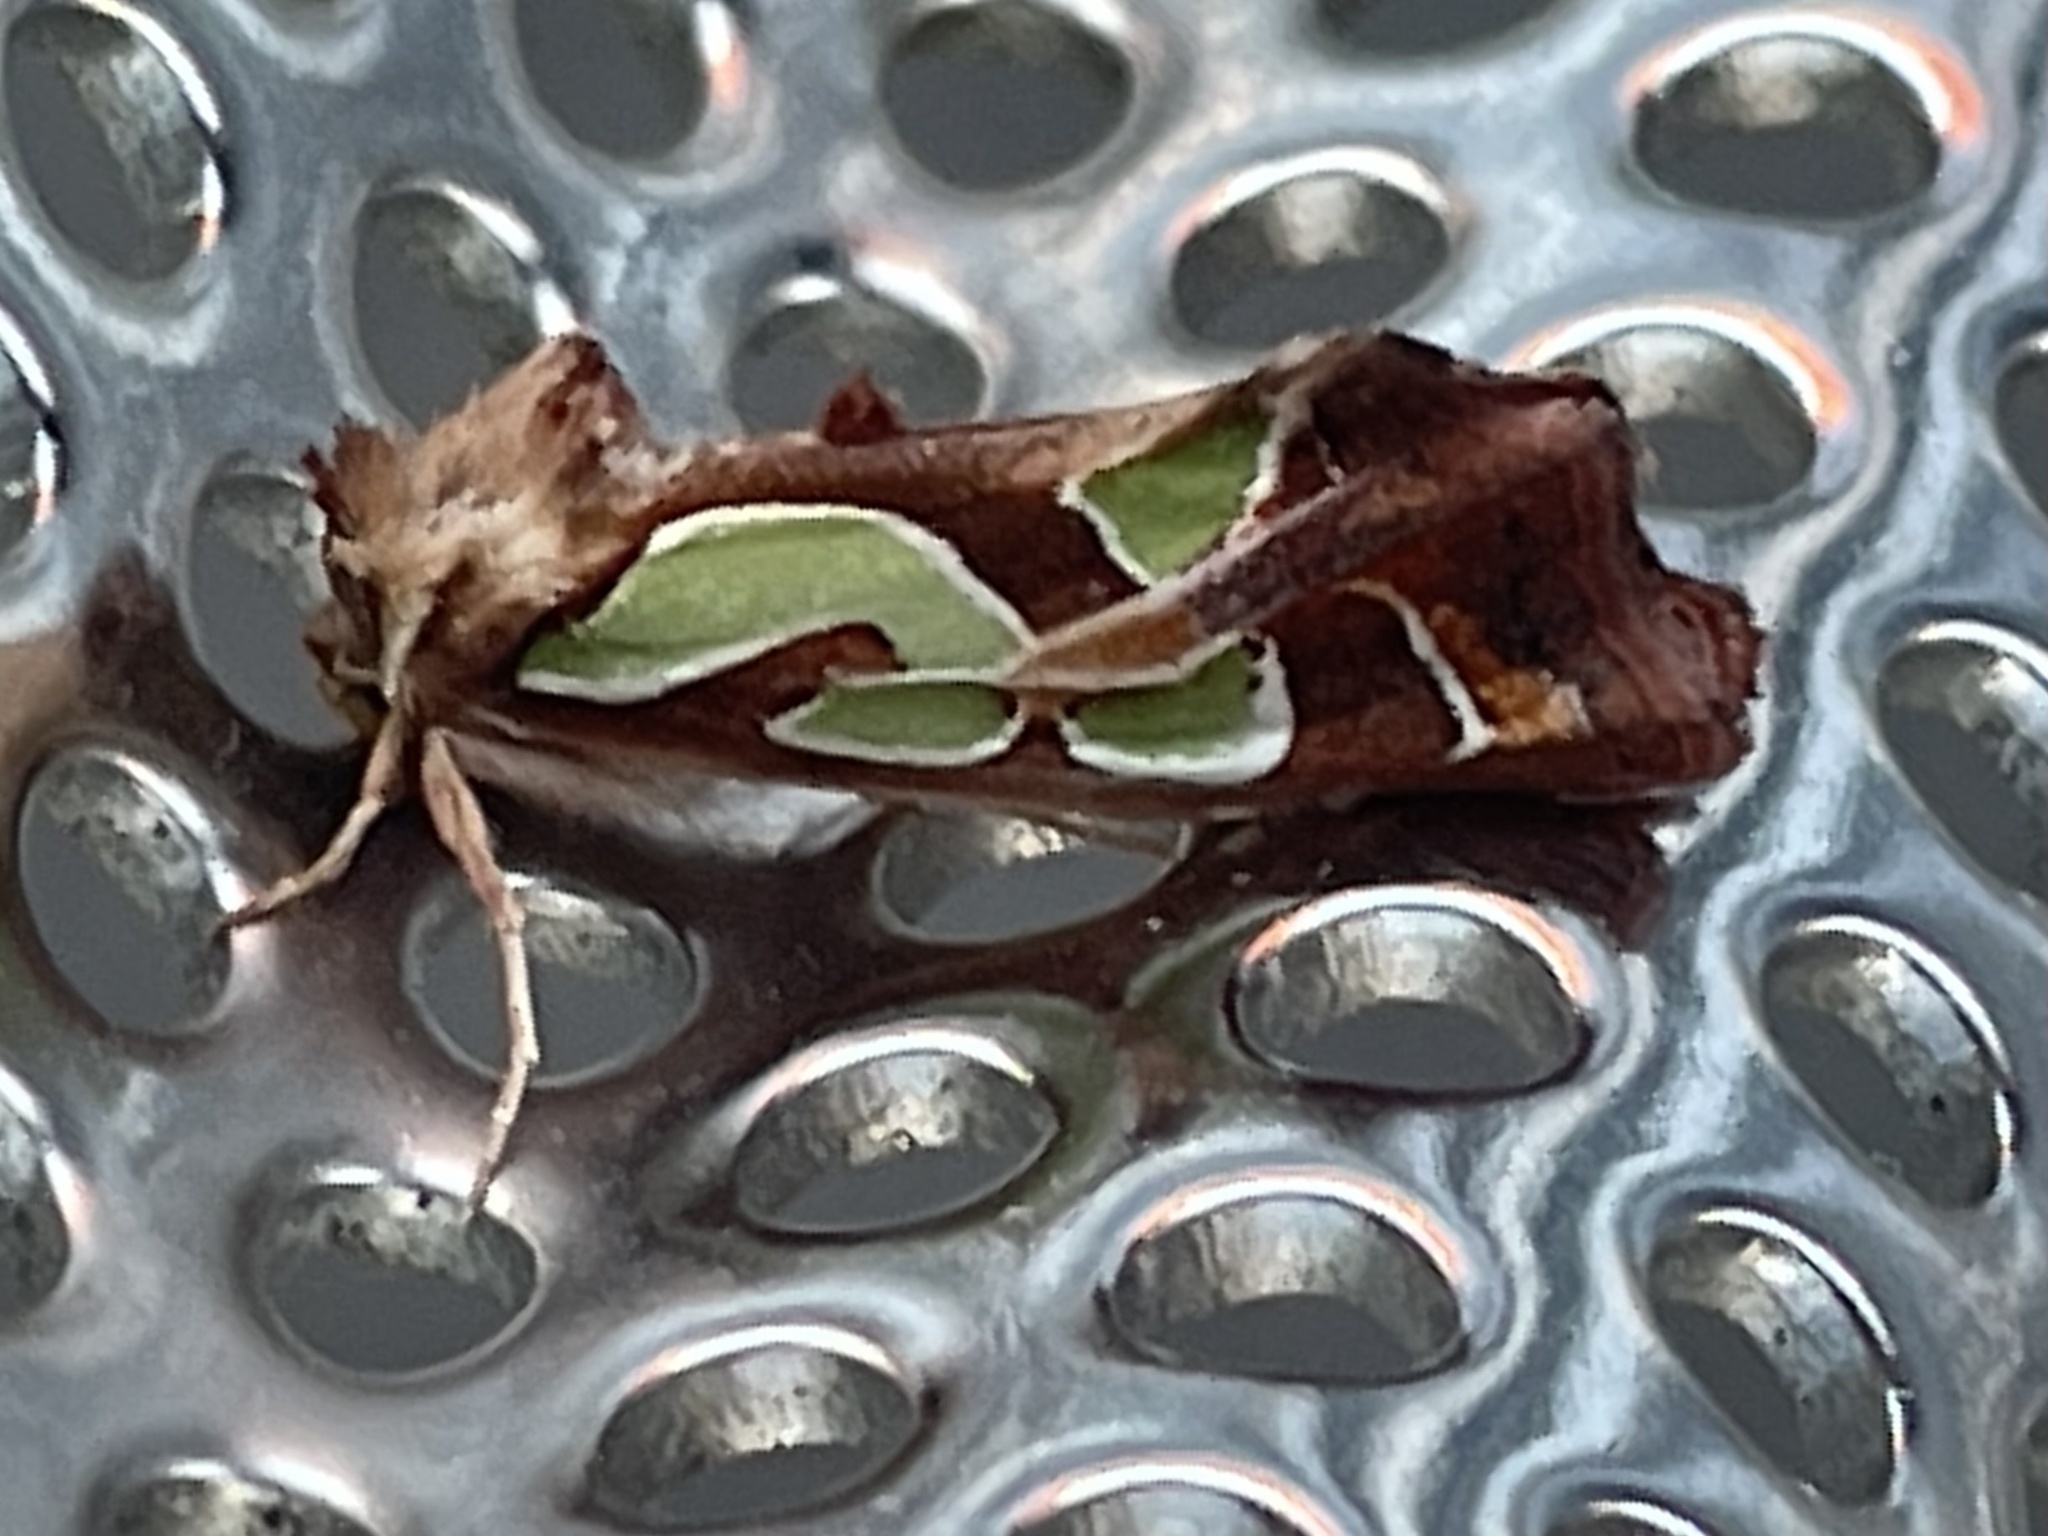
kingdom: Animalia
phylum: Arthropoda
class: Insecta
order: Lepidoptera
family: Noctuidae
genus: Cosmodes
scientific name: Cosmodes elegans
